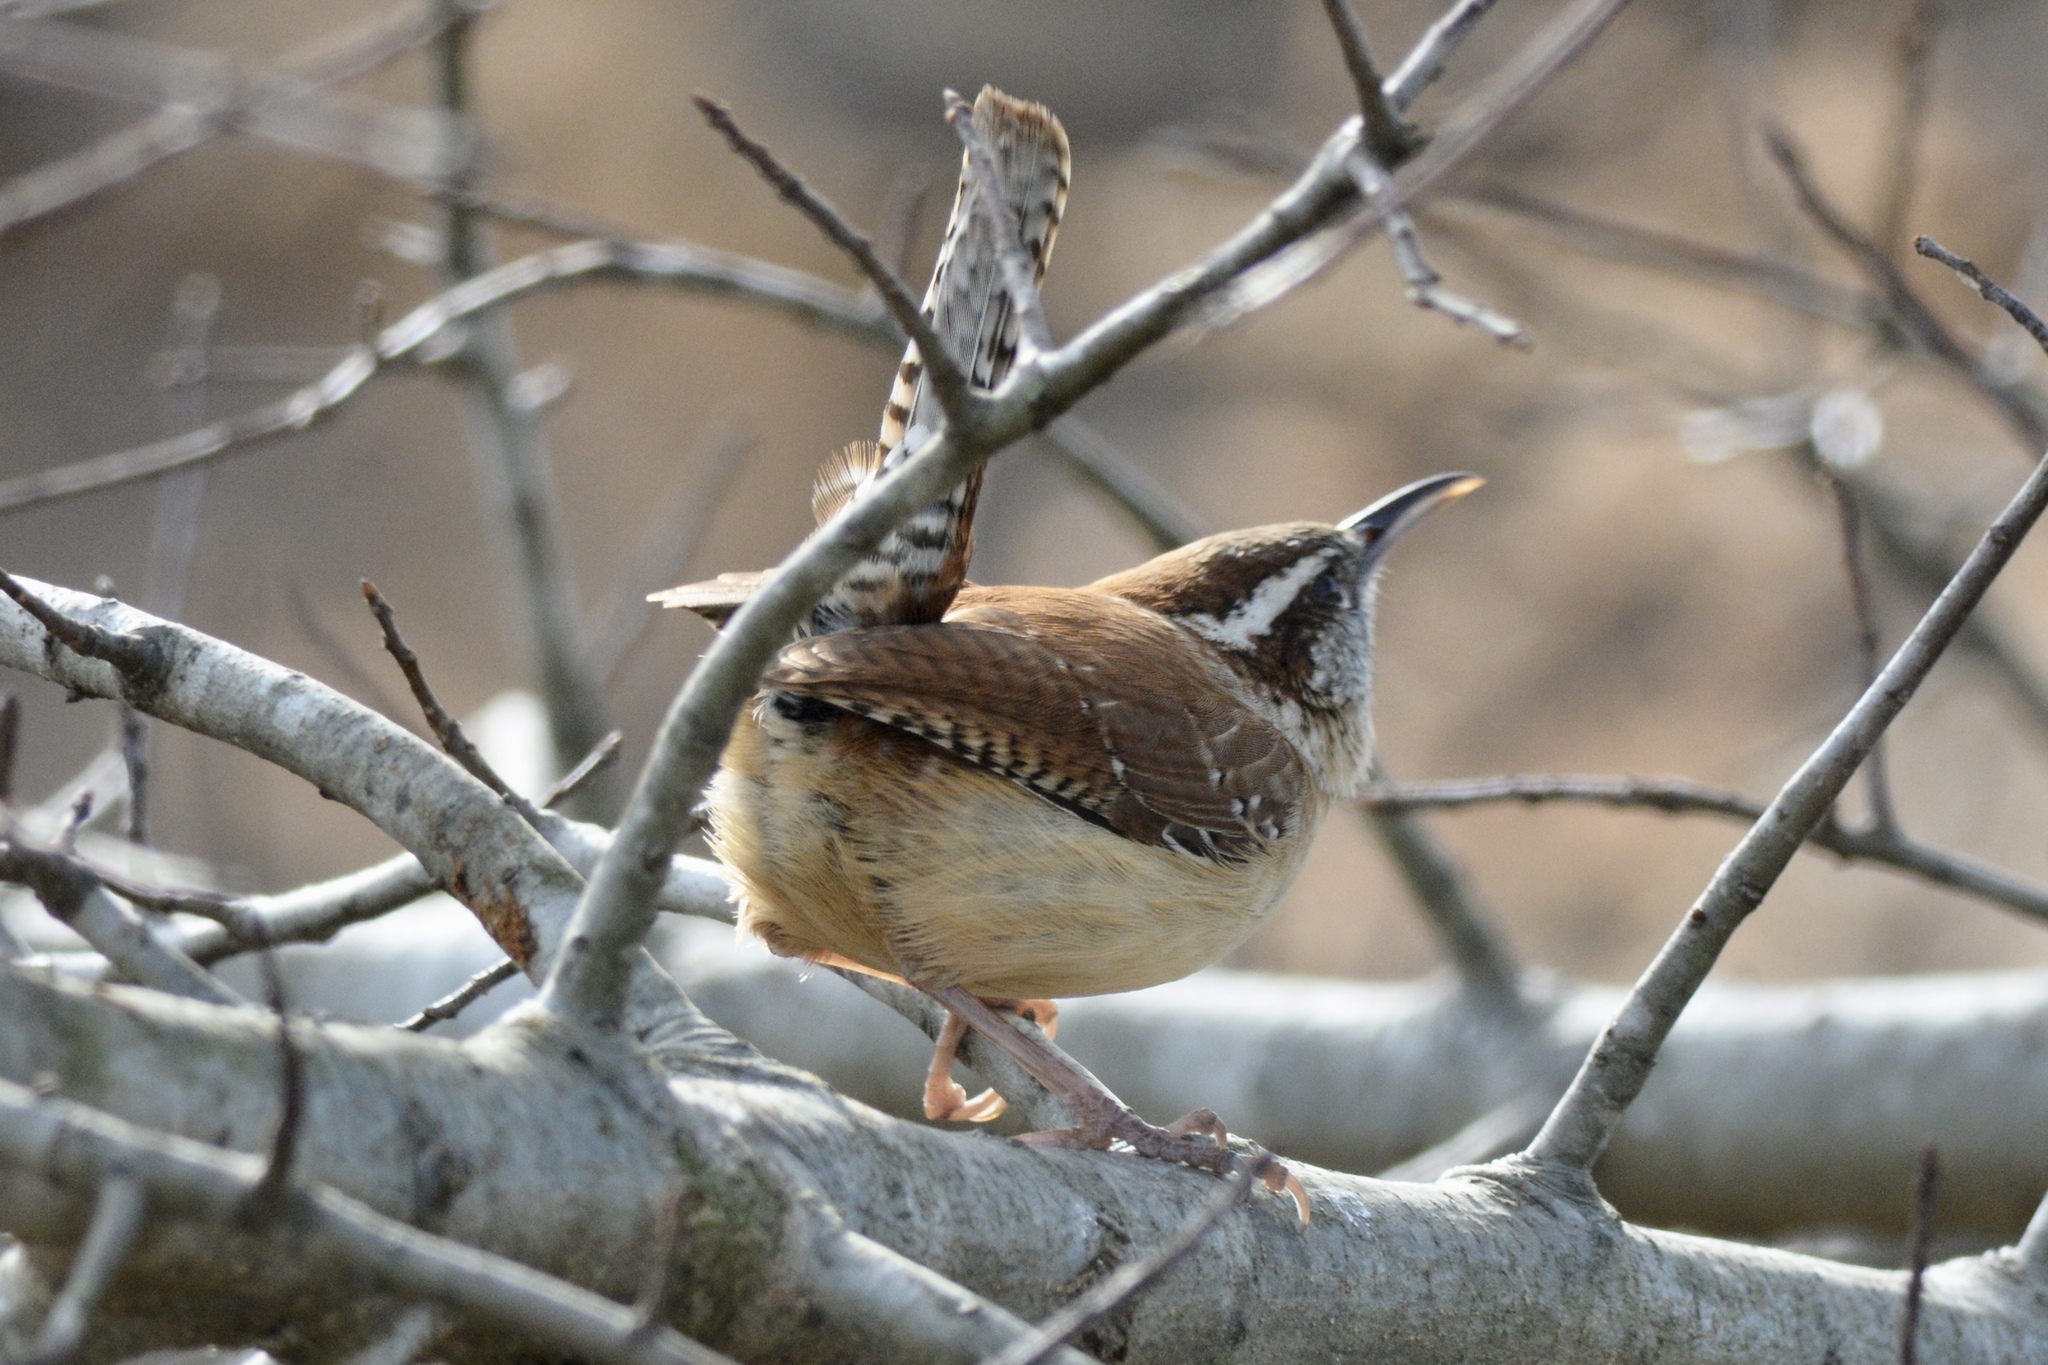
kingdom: Animalia
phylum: Chordata
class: Aves
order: Passeriformes
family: Troglodytidae
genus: Thryothorus
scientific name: Thryothorus ludovicianus
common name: Carolina wren
